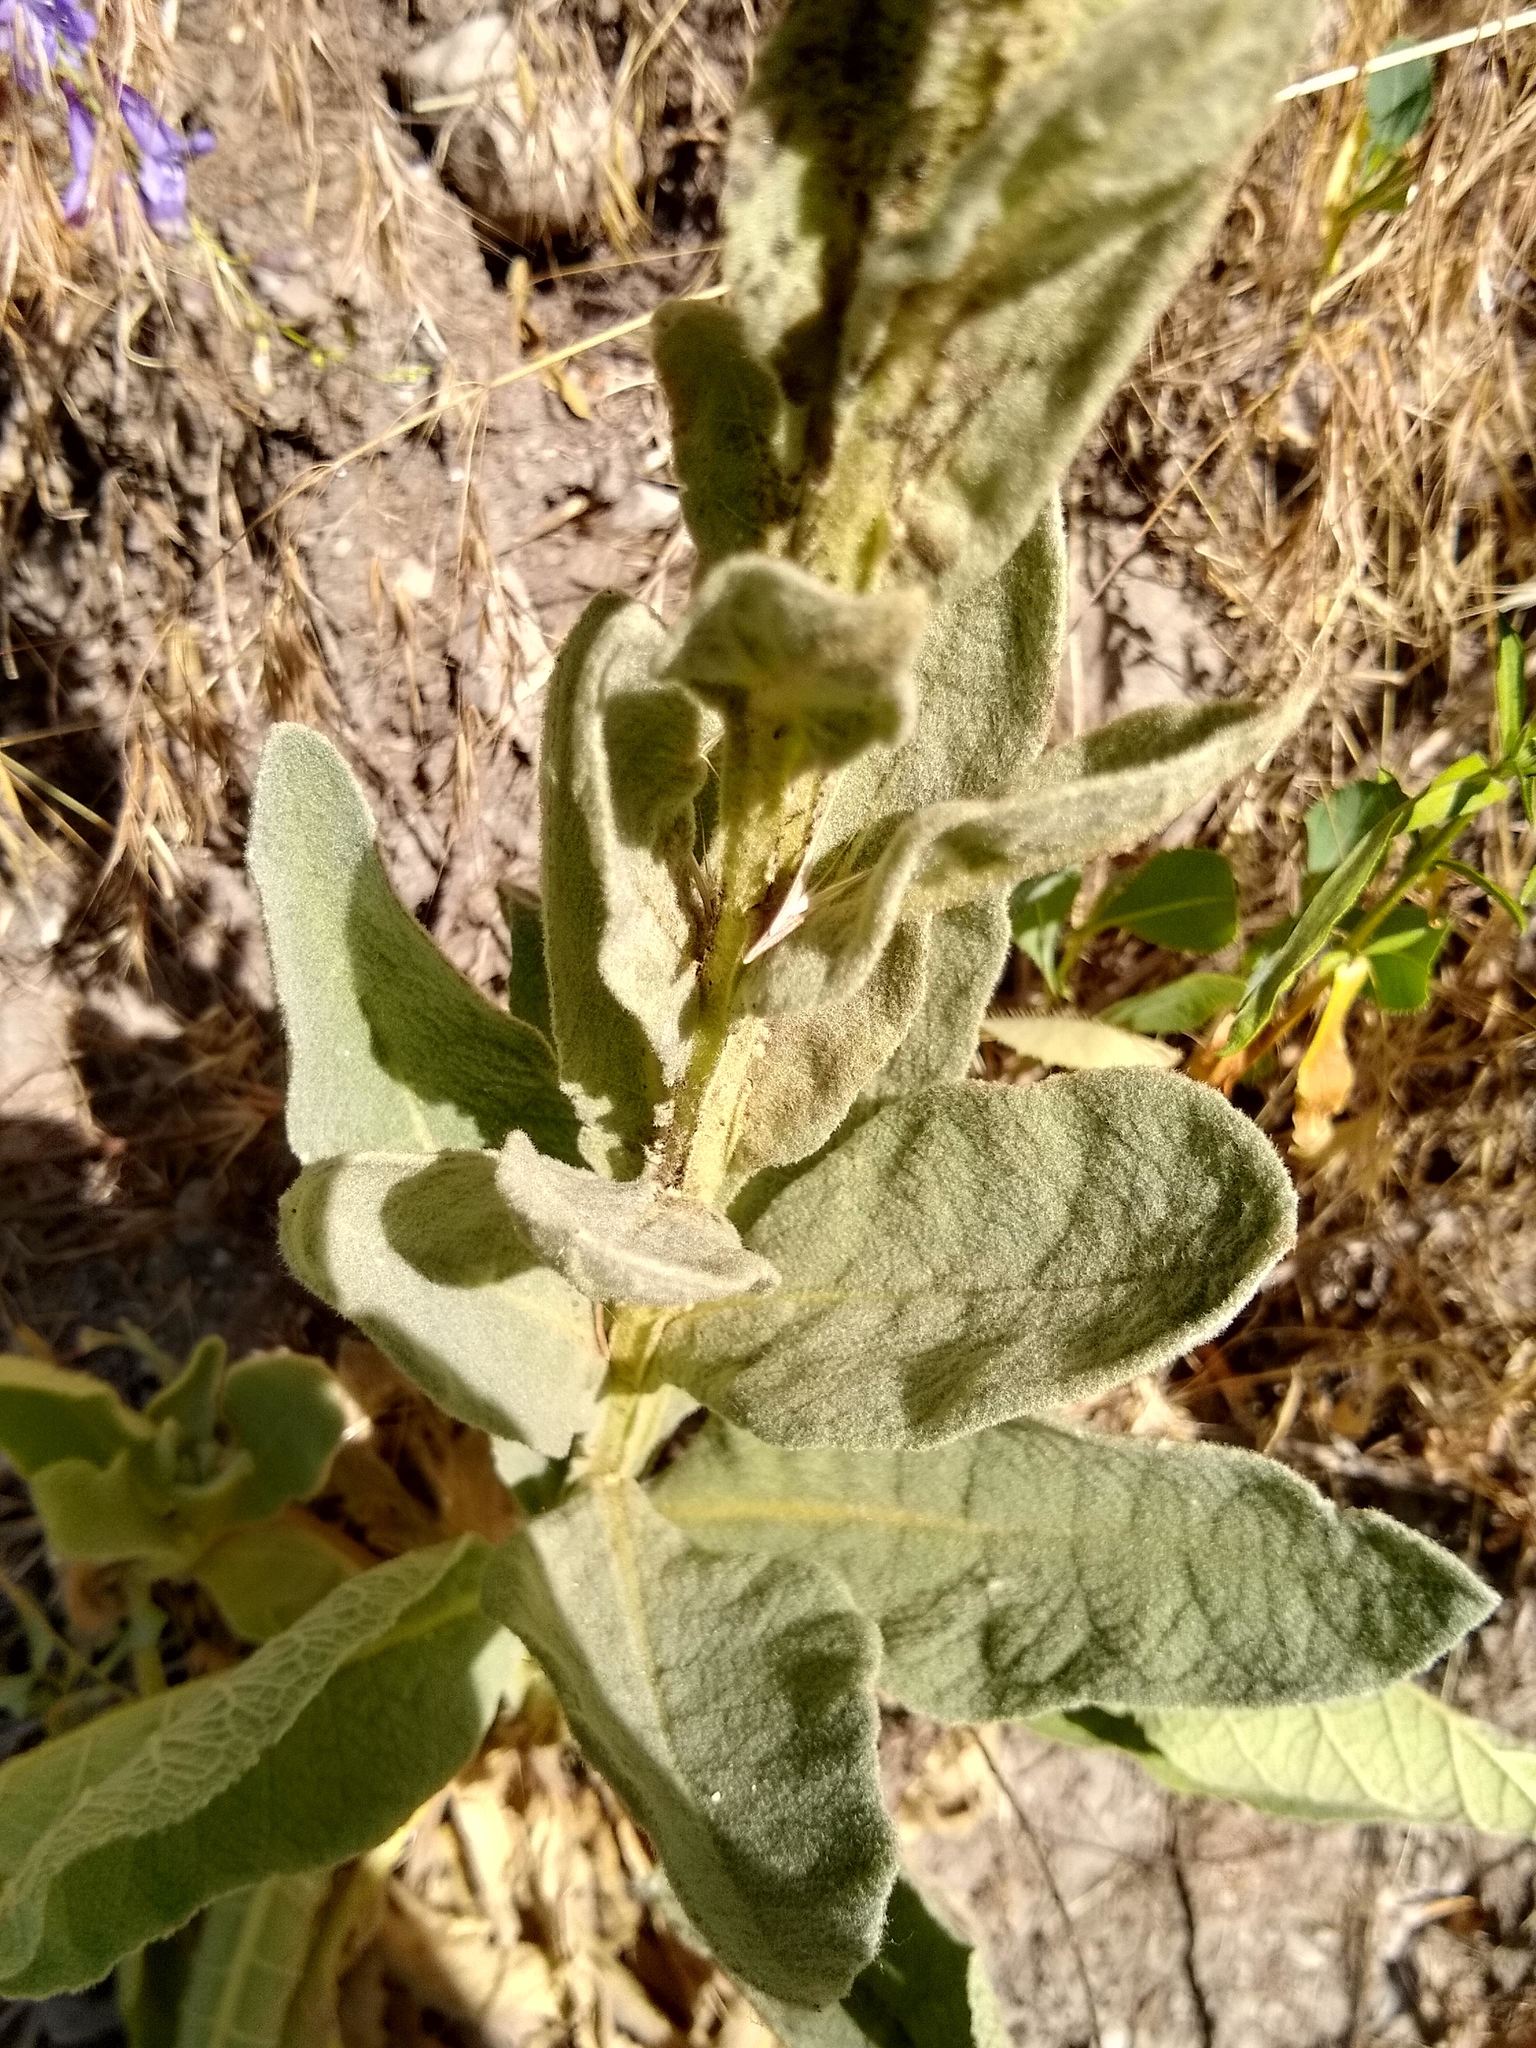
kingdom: Plantae
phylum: Tracheophyta
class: Magnoliopsida
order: Lamiales
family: Scrophulariaceae
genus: Verbascum
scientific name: Verbascum thapsus
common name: Common mullein
